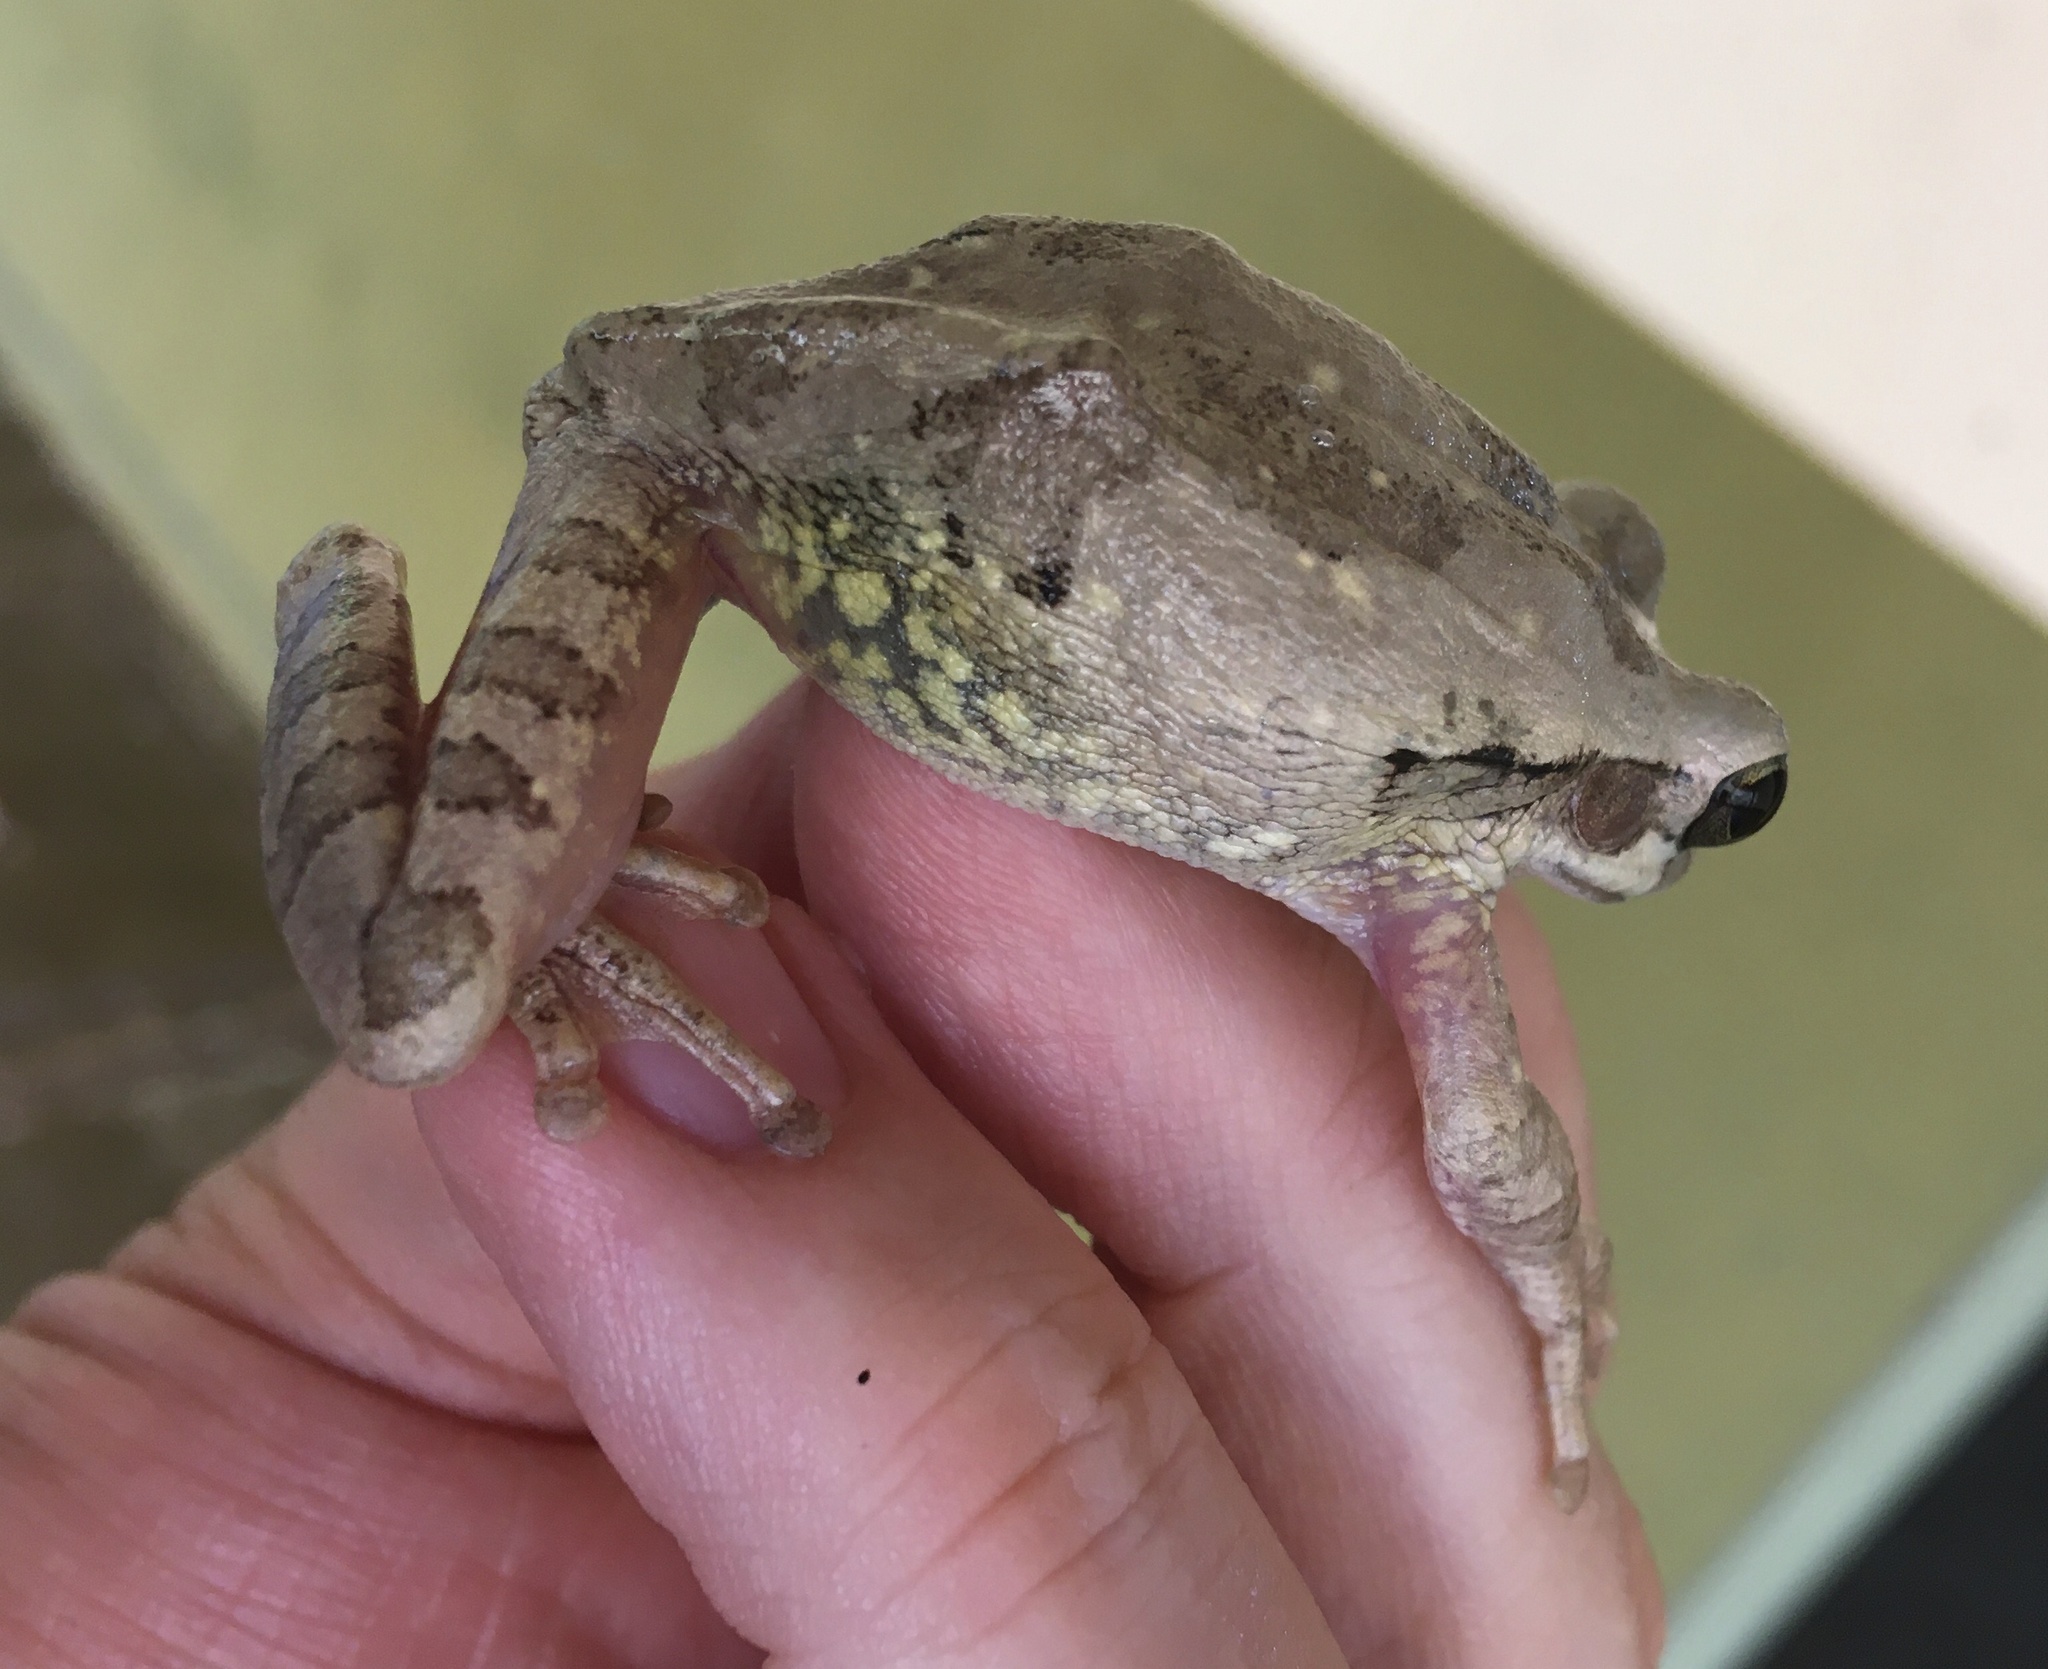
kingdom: Animalia
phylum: Chordata
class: Amphibia
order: Anura
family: Hylidae
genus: Smilisca
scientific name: Smilisca baudinii
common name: Mexican smilisca
